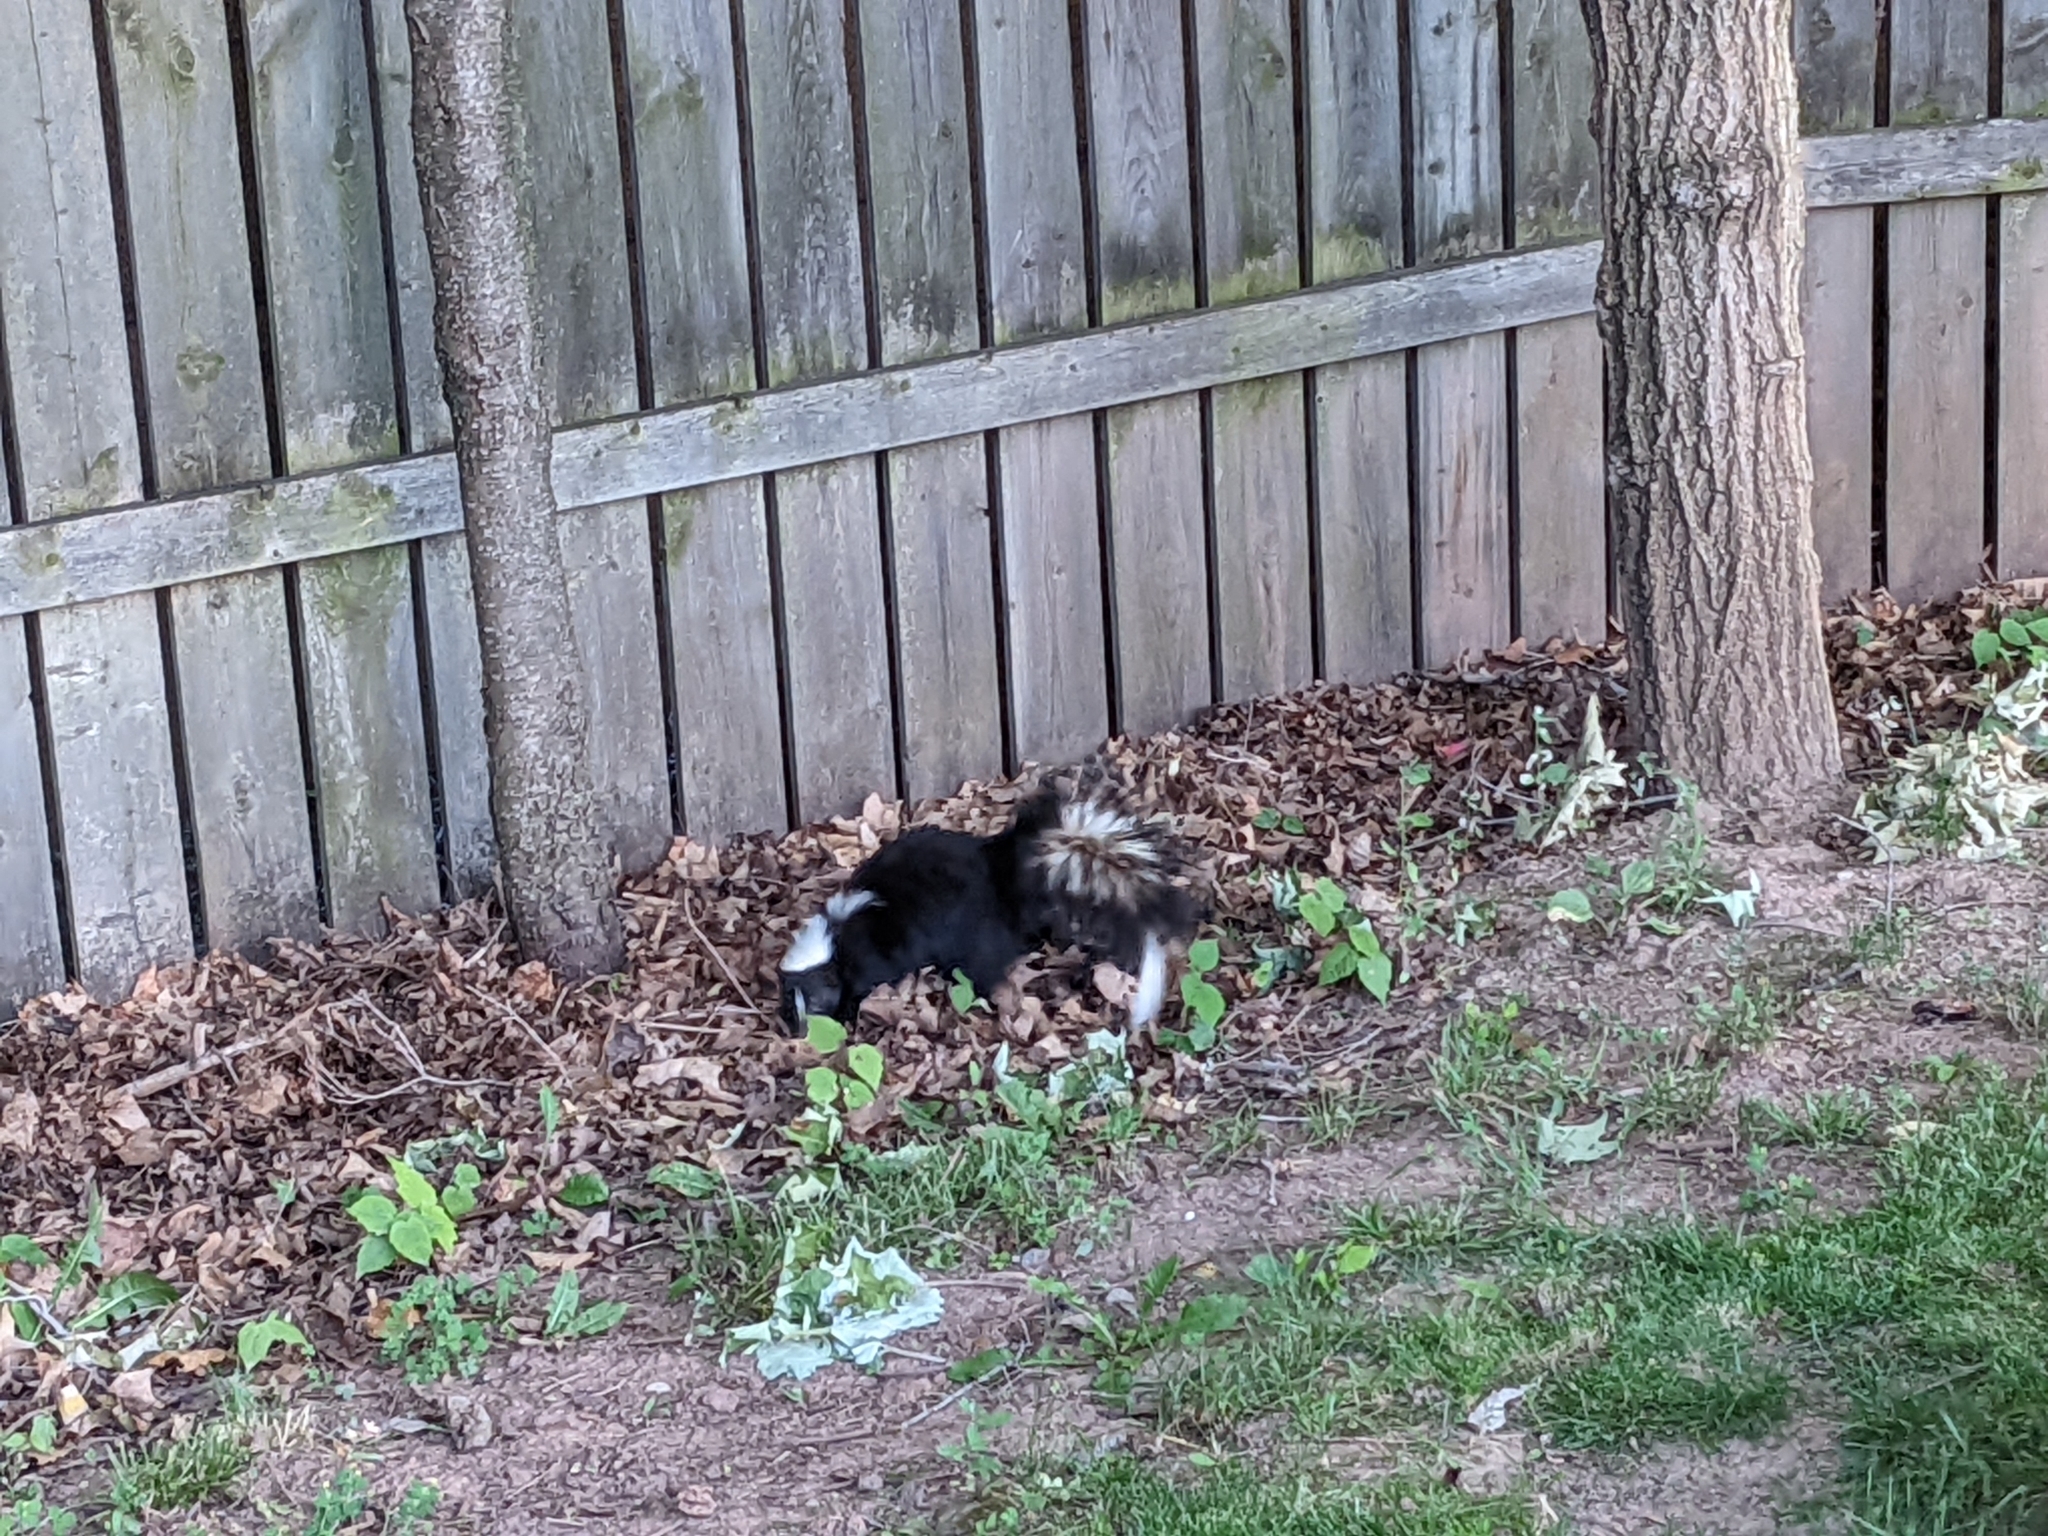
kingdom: Animalia
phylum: Chordata
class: Mammalia
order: Carnivora
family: Mephitidae
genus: Mephitis
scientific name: Mephitis mephitis
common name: Striped skunk
